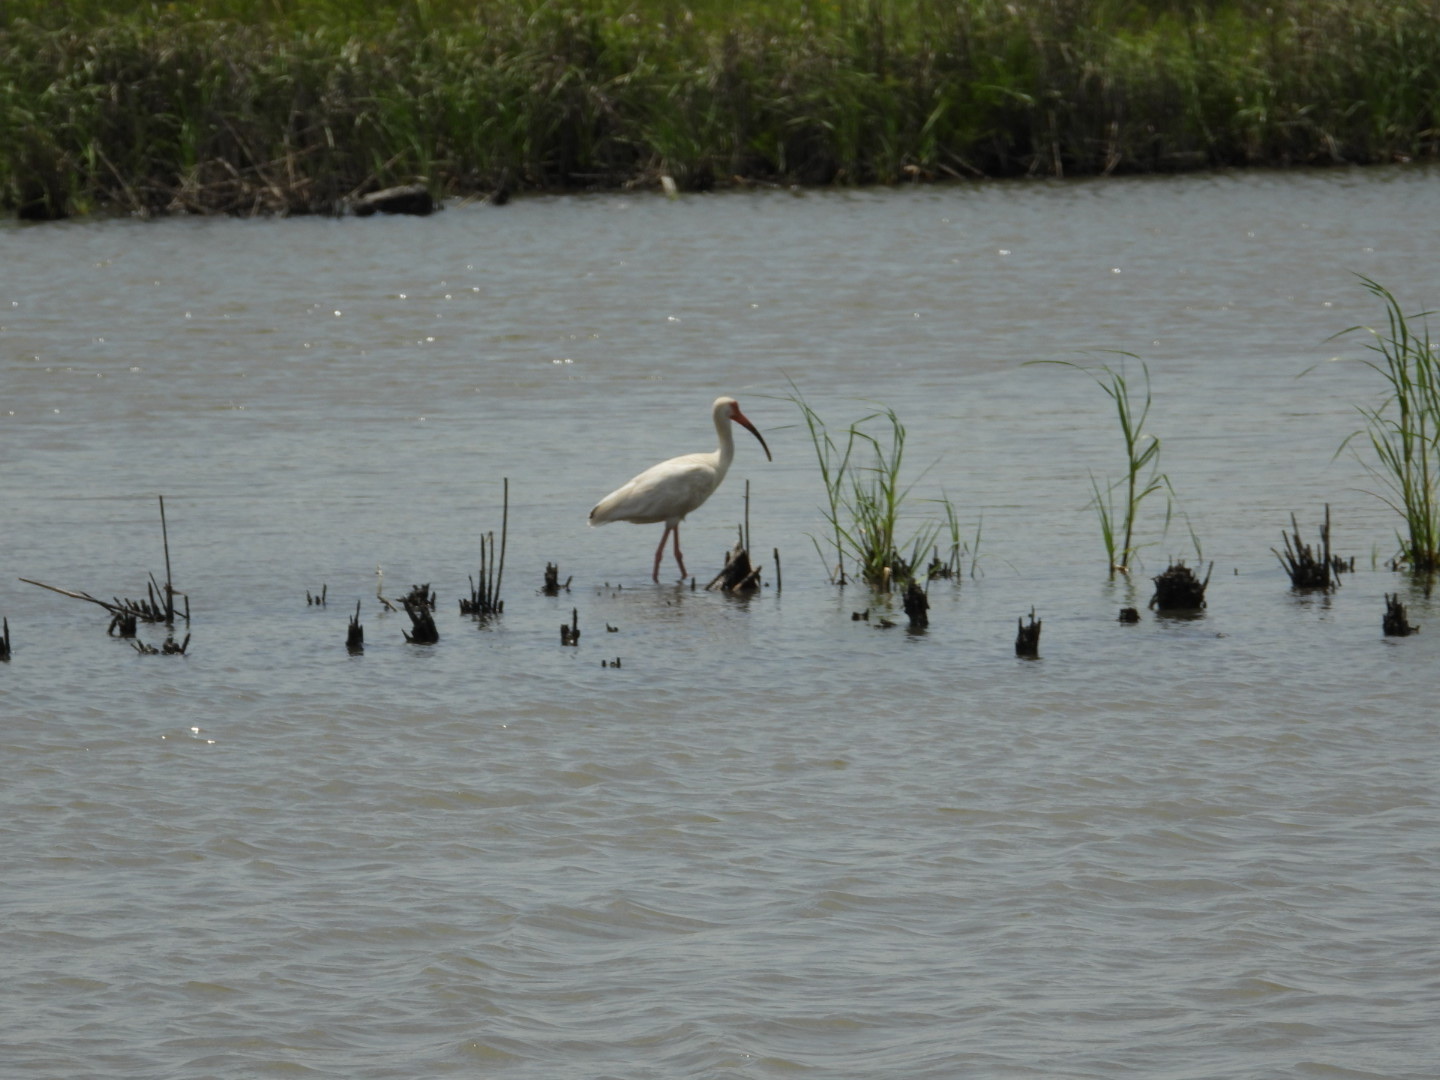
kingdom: Animalia
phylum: Chordata
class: Aves
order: Pelecaniformes
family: Threskiornithidae
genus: Eudocimus
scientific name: Eudocimus albus
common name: White ibis
